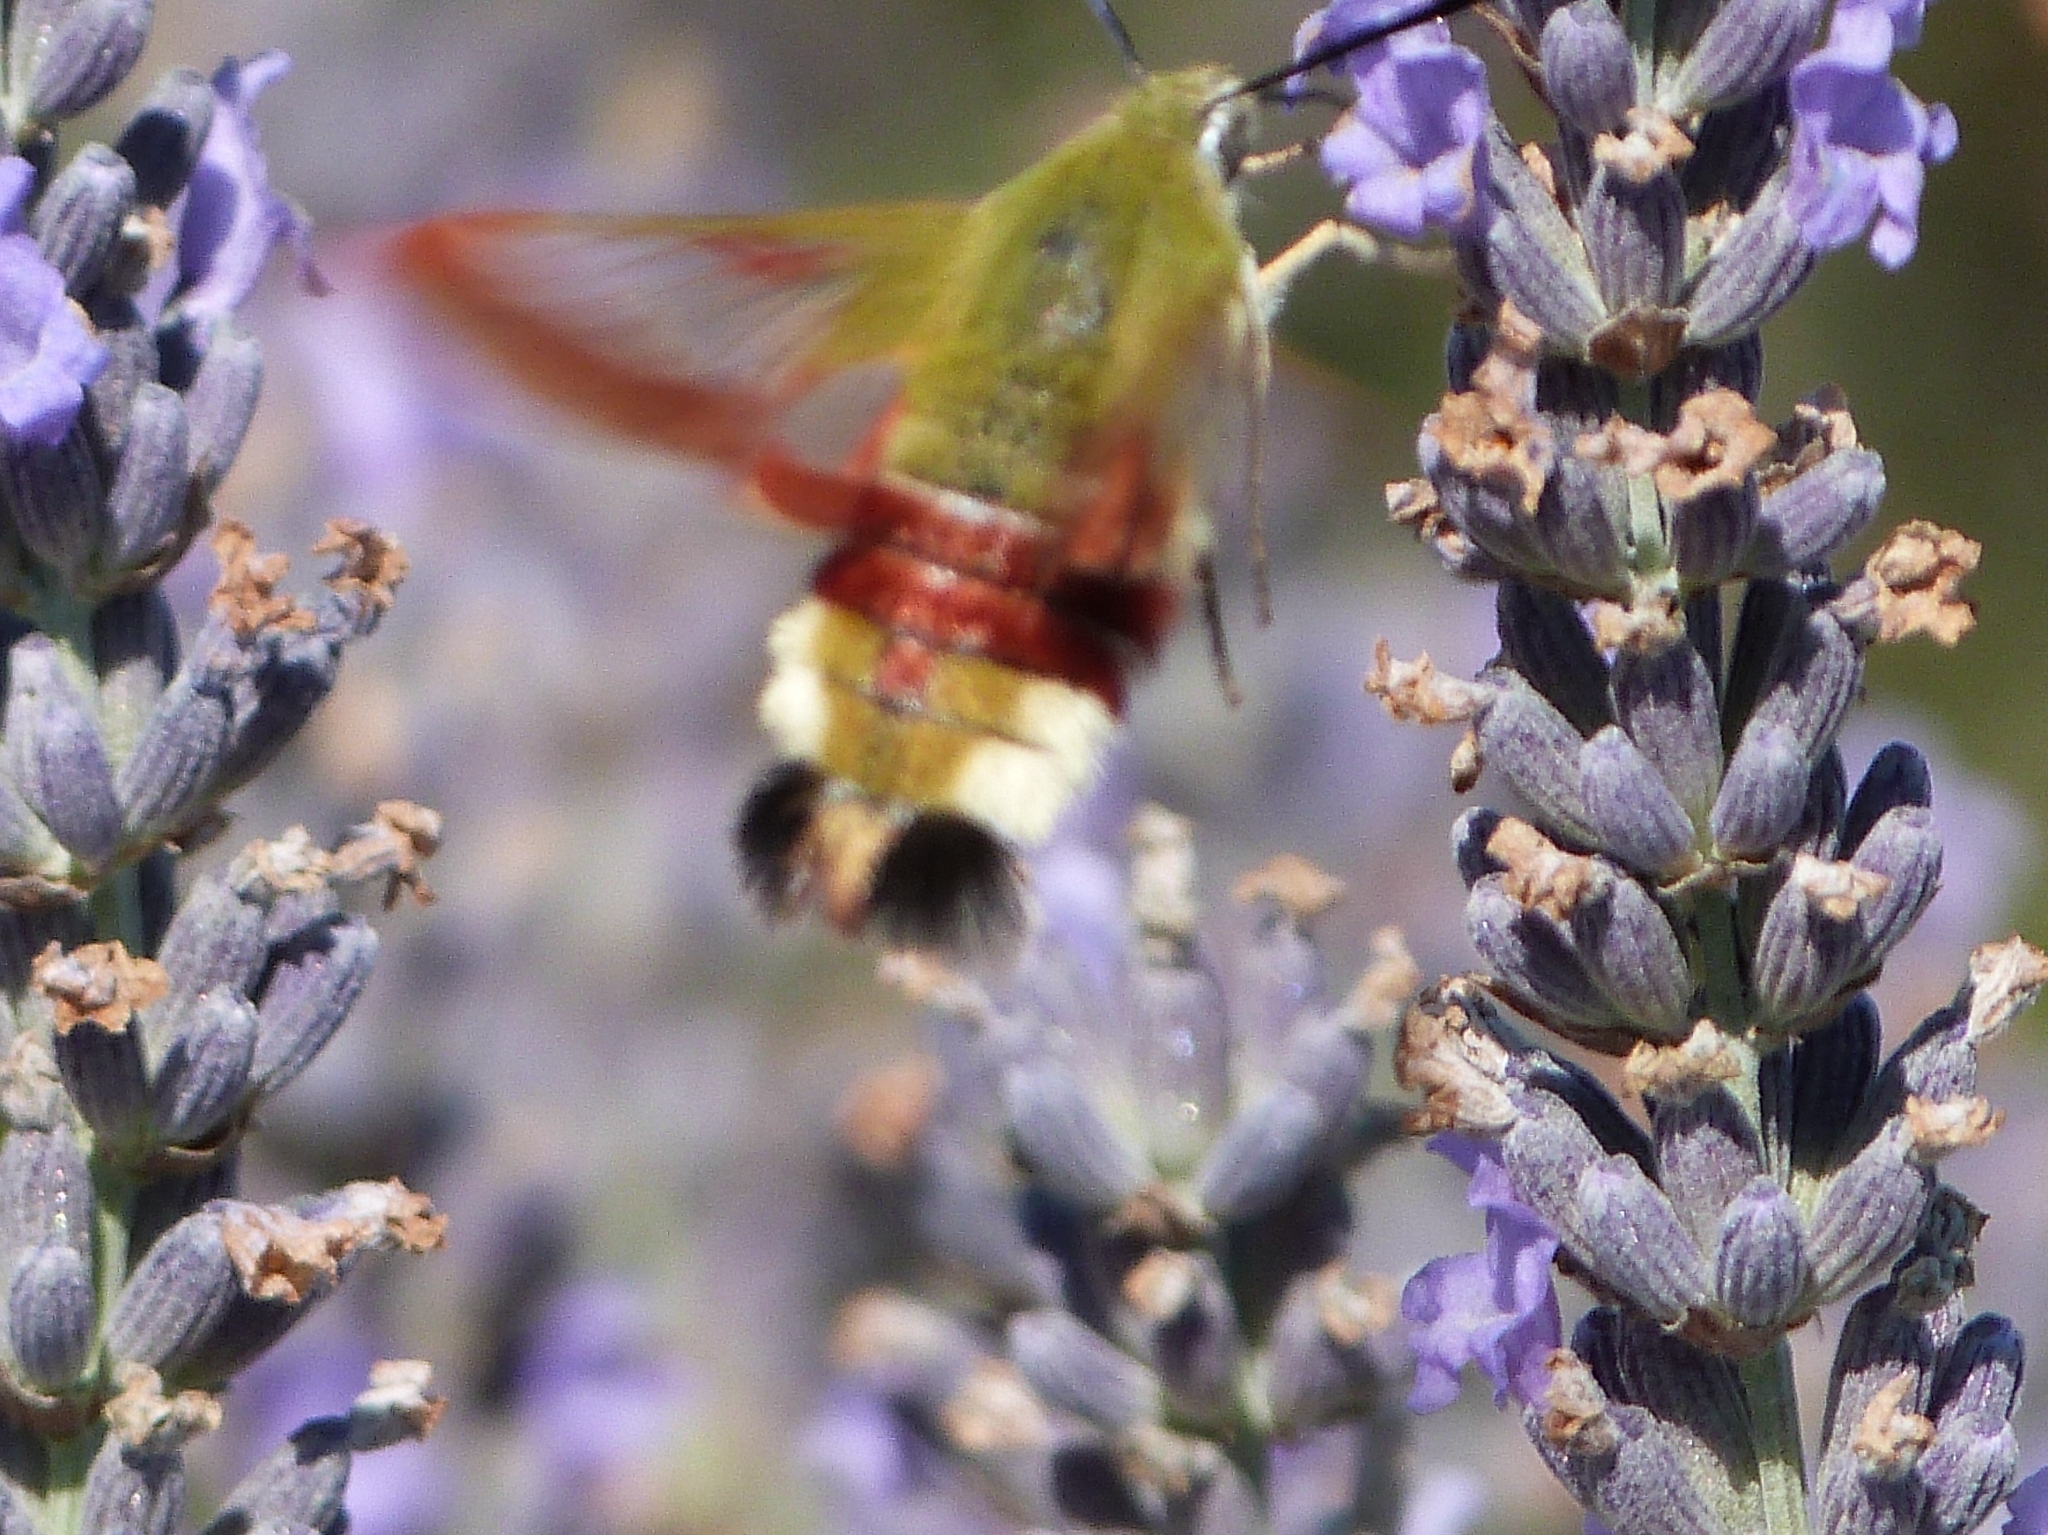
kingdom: Animalia
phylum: Arthropoda
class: Insecta
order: Lepidoptera
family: Sphingidae
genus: Hemaris
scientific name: Hemaris fuciformis
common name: Broad-bordered bee hawk-moth
